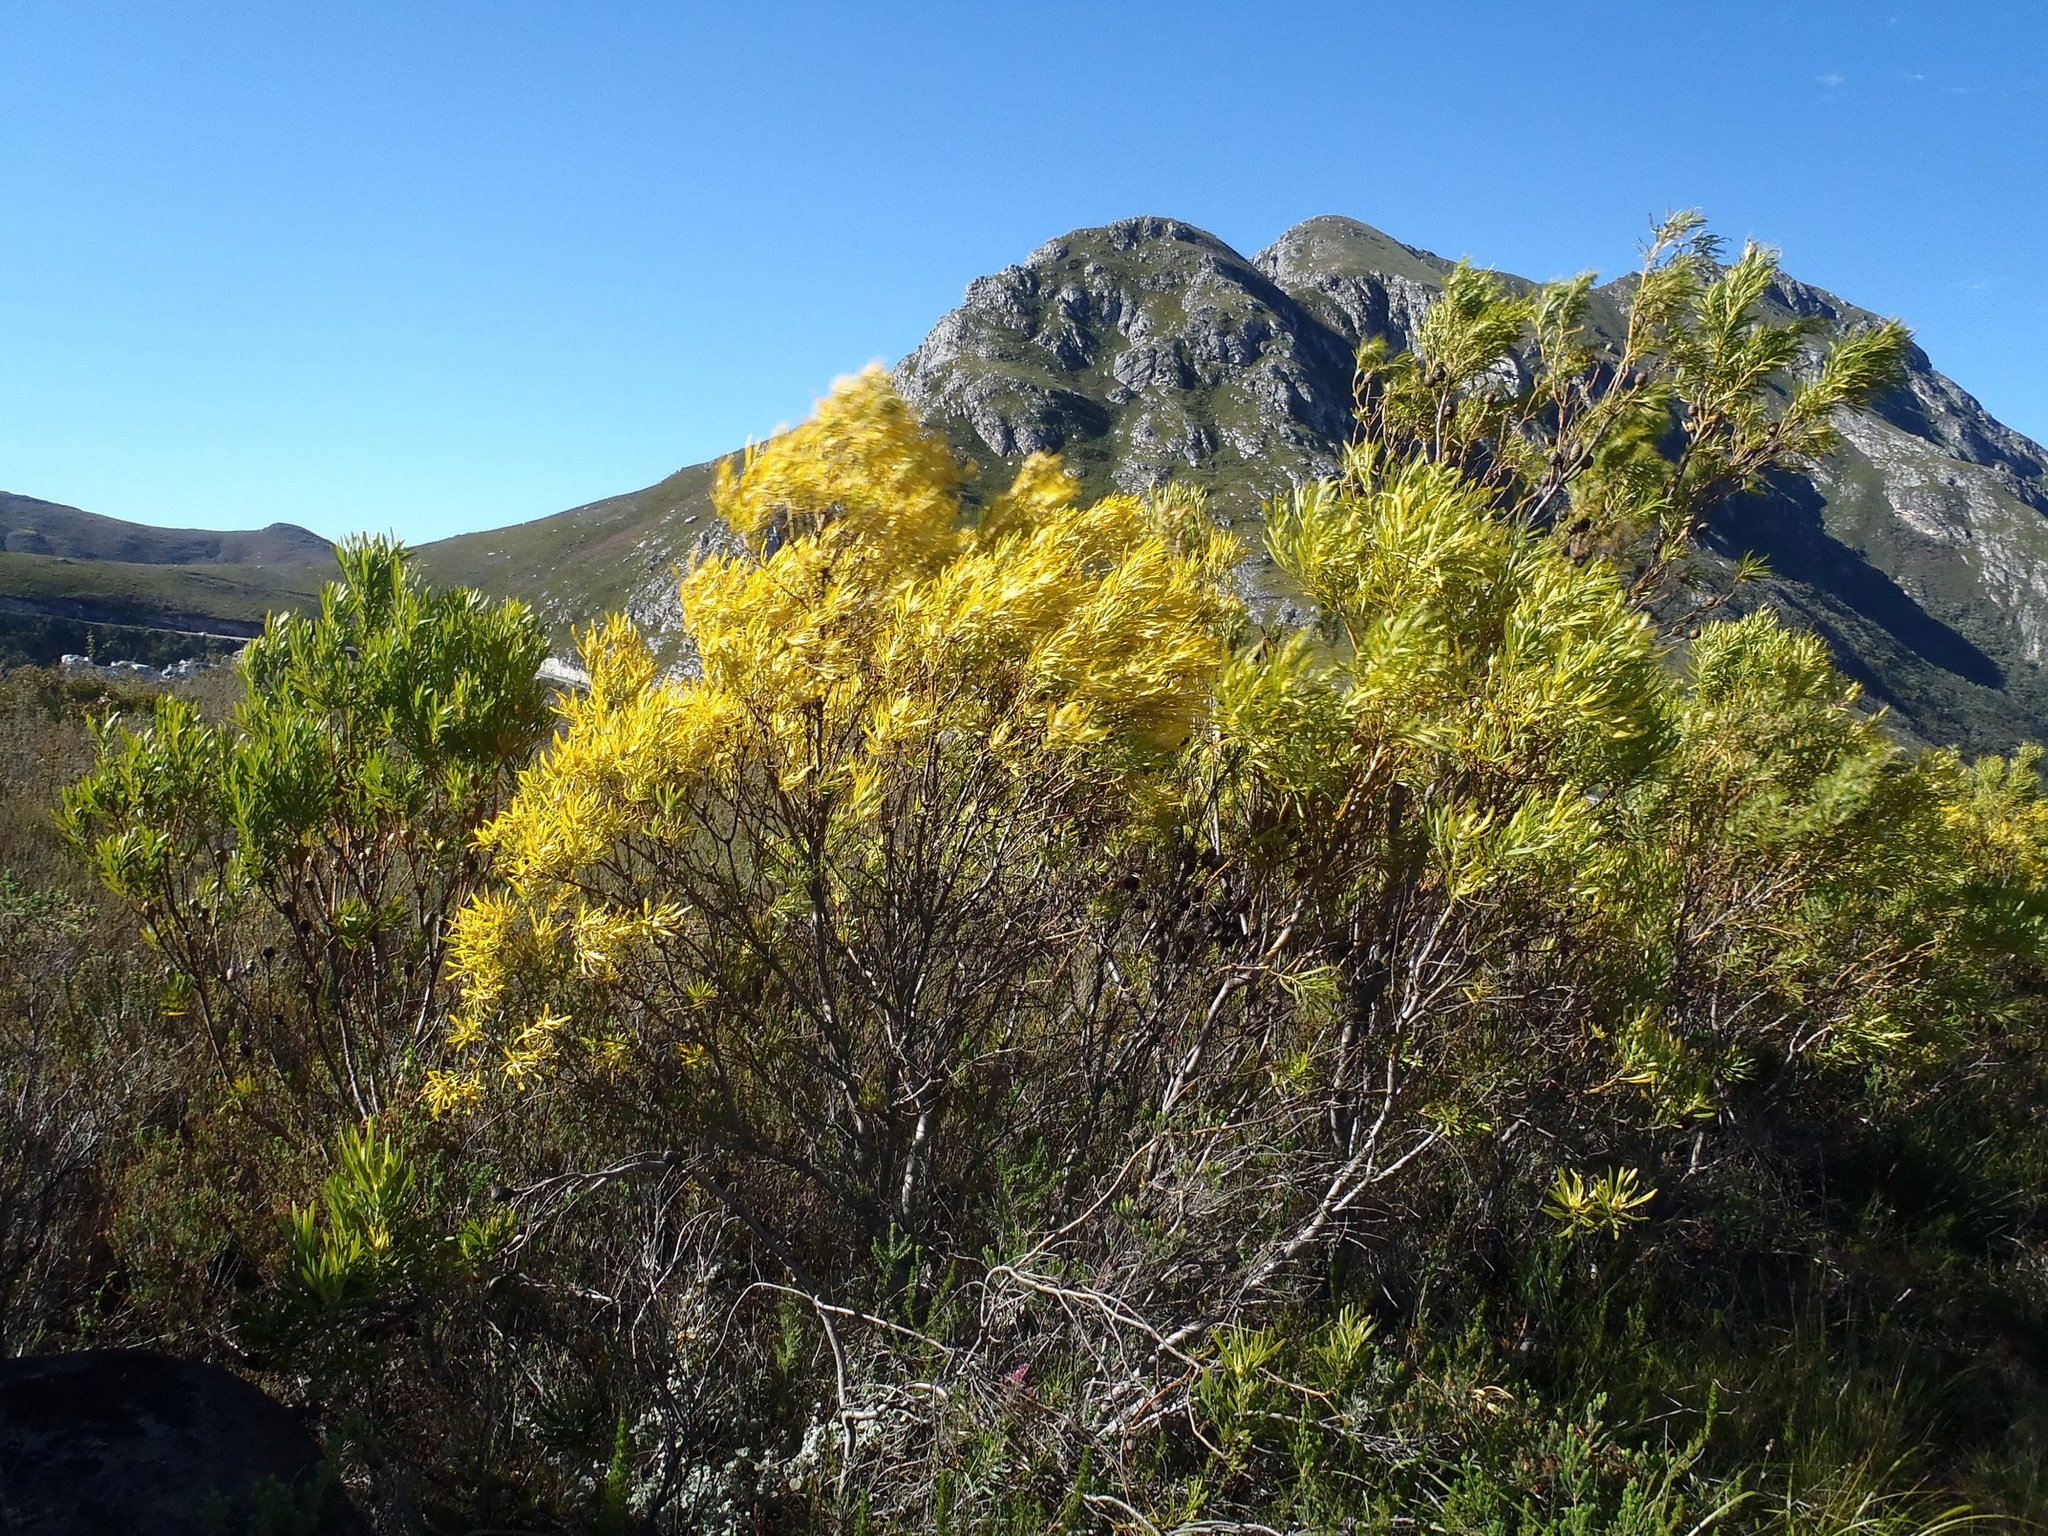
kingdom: Plantae
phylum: Tracheophyta
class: Magnoliopsida
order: Proteales
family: Proteaceae
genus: Leucadendron
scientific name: Leucadendron eucalyptifolium
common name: Gum-leaved conebush
